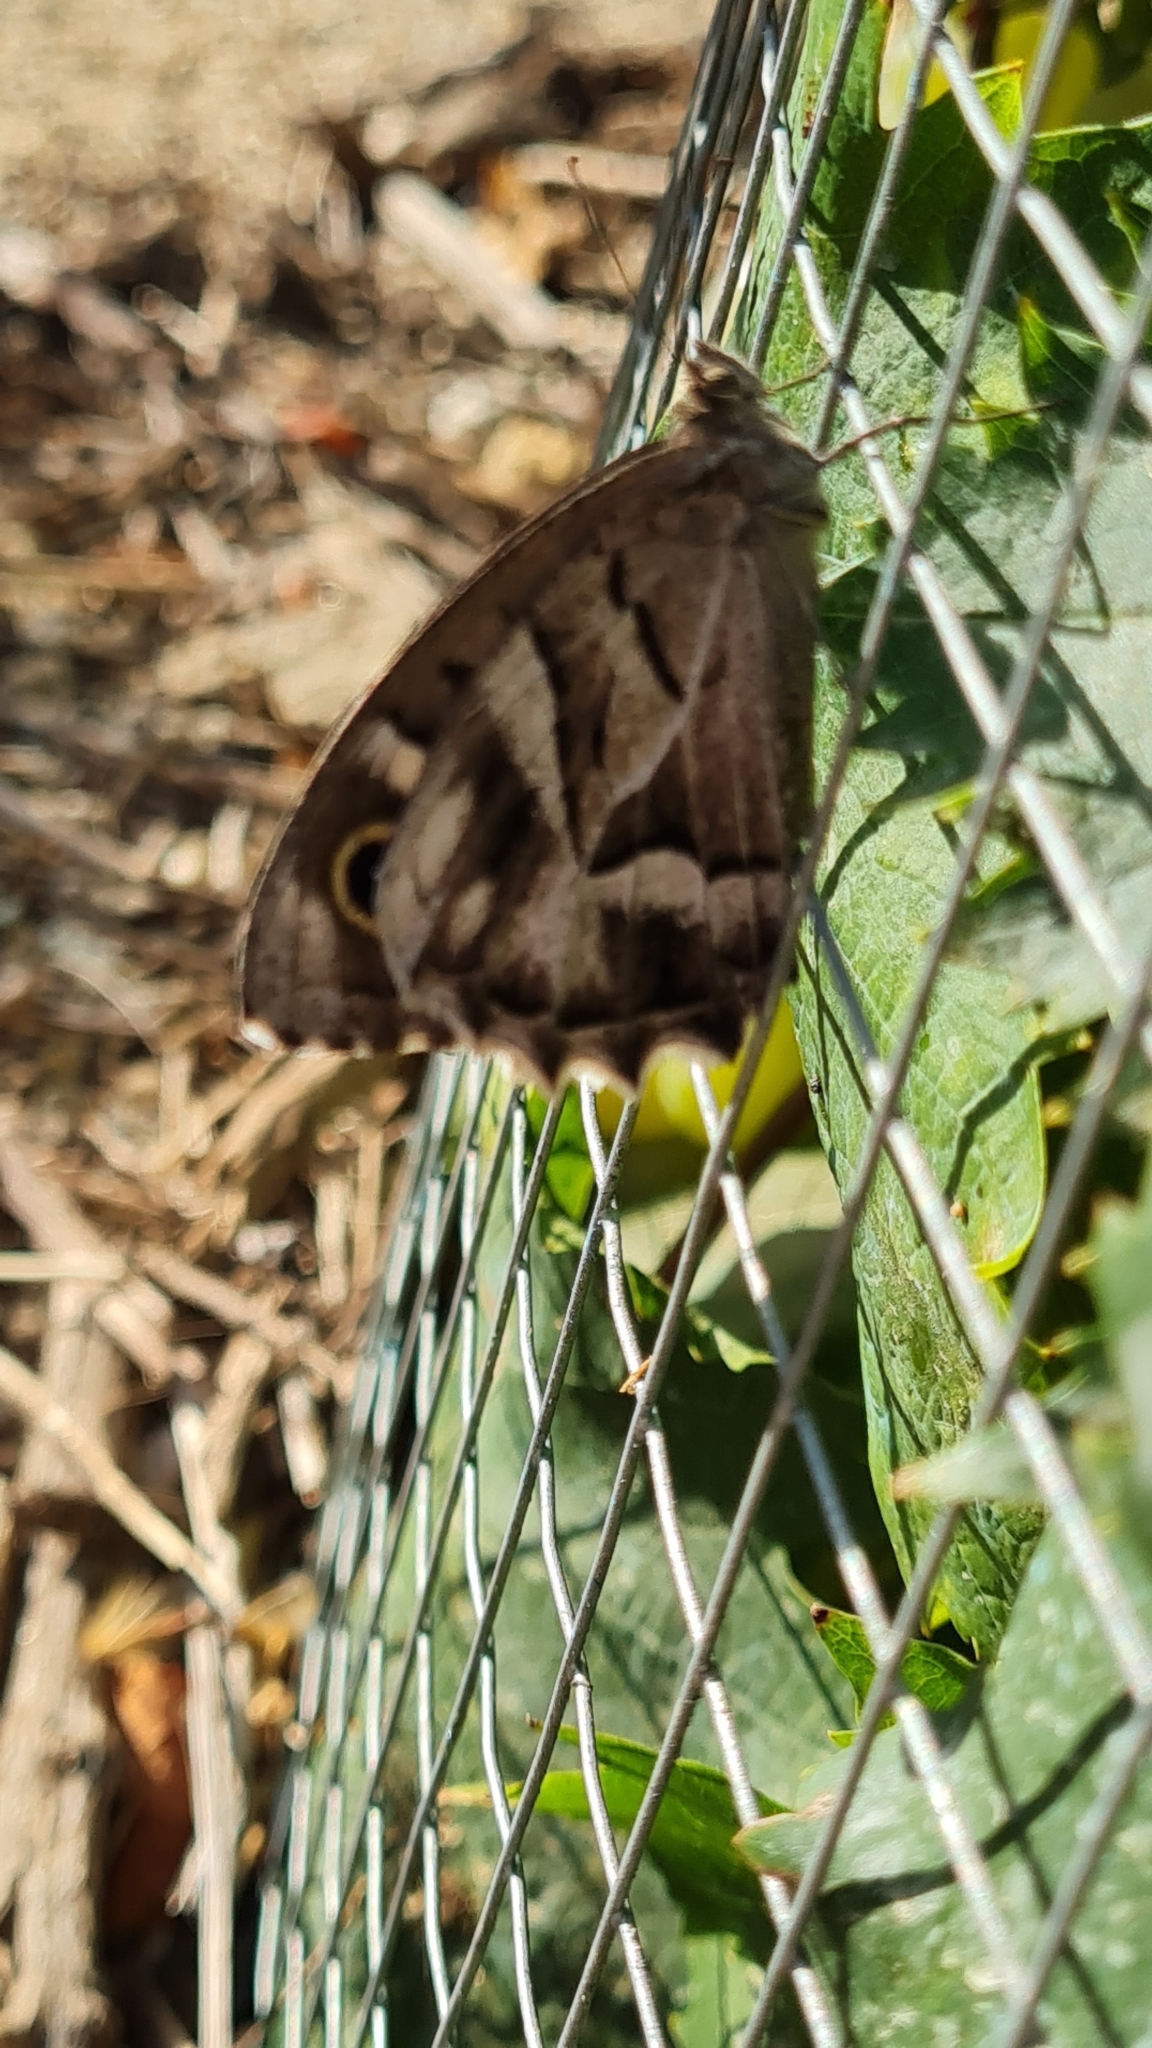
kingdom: Animalia
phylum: Arthropoda
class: Insecta
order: Lepidoptera
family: Nymphalidae
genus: Hipparchia
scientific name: Hipparchia fidia
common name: Striped grayling
